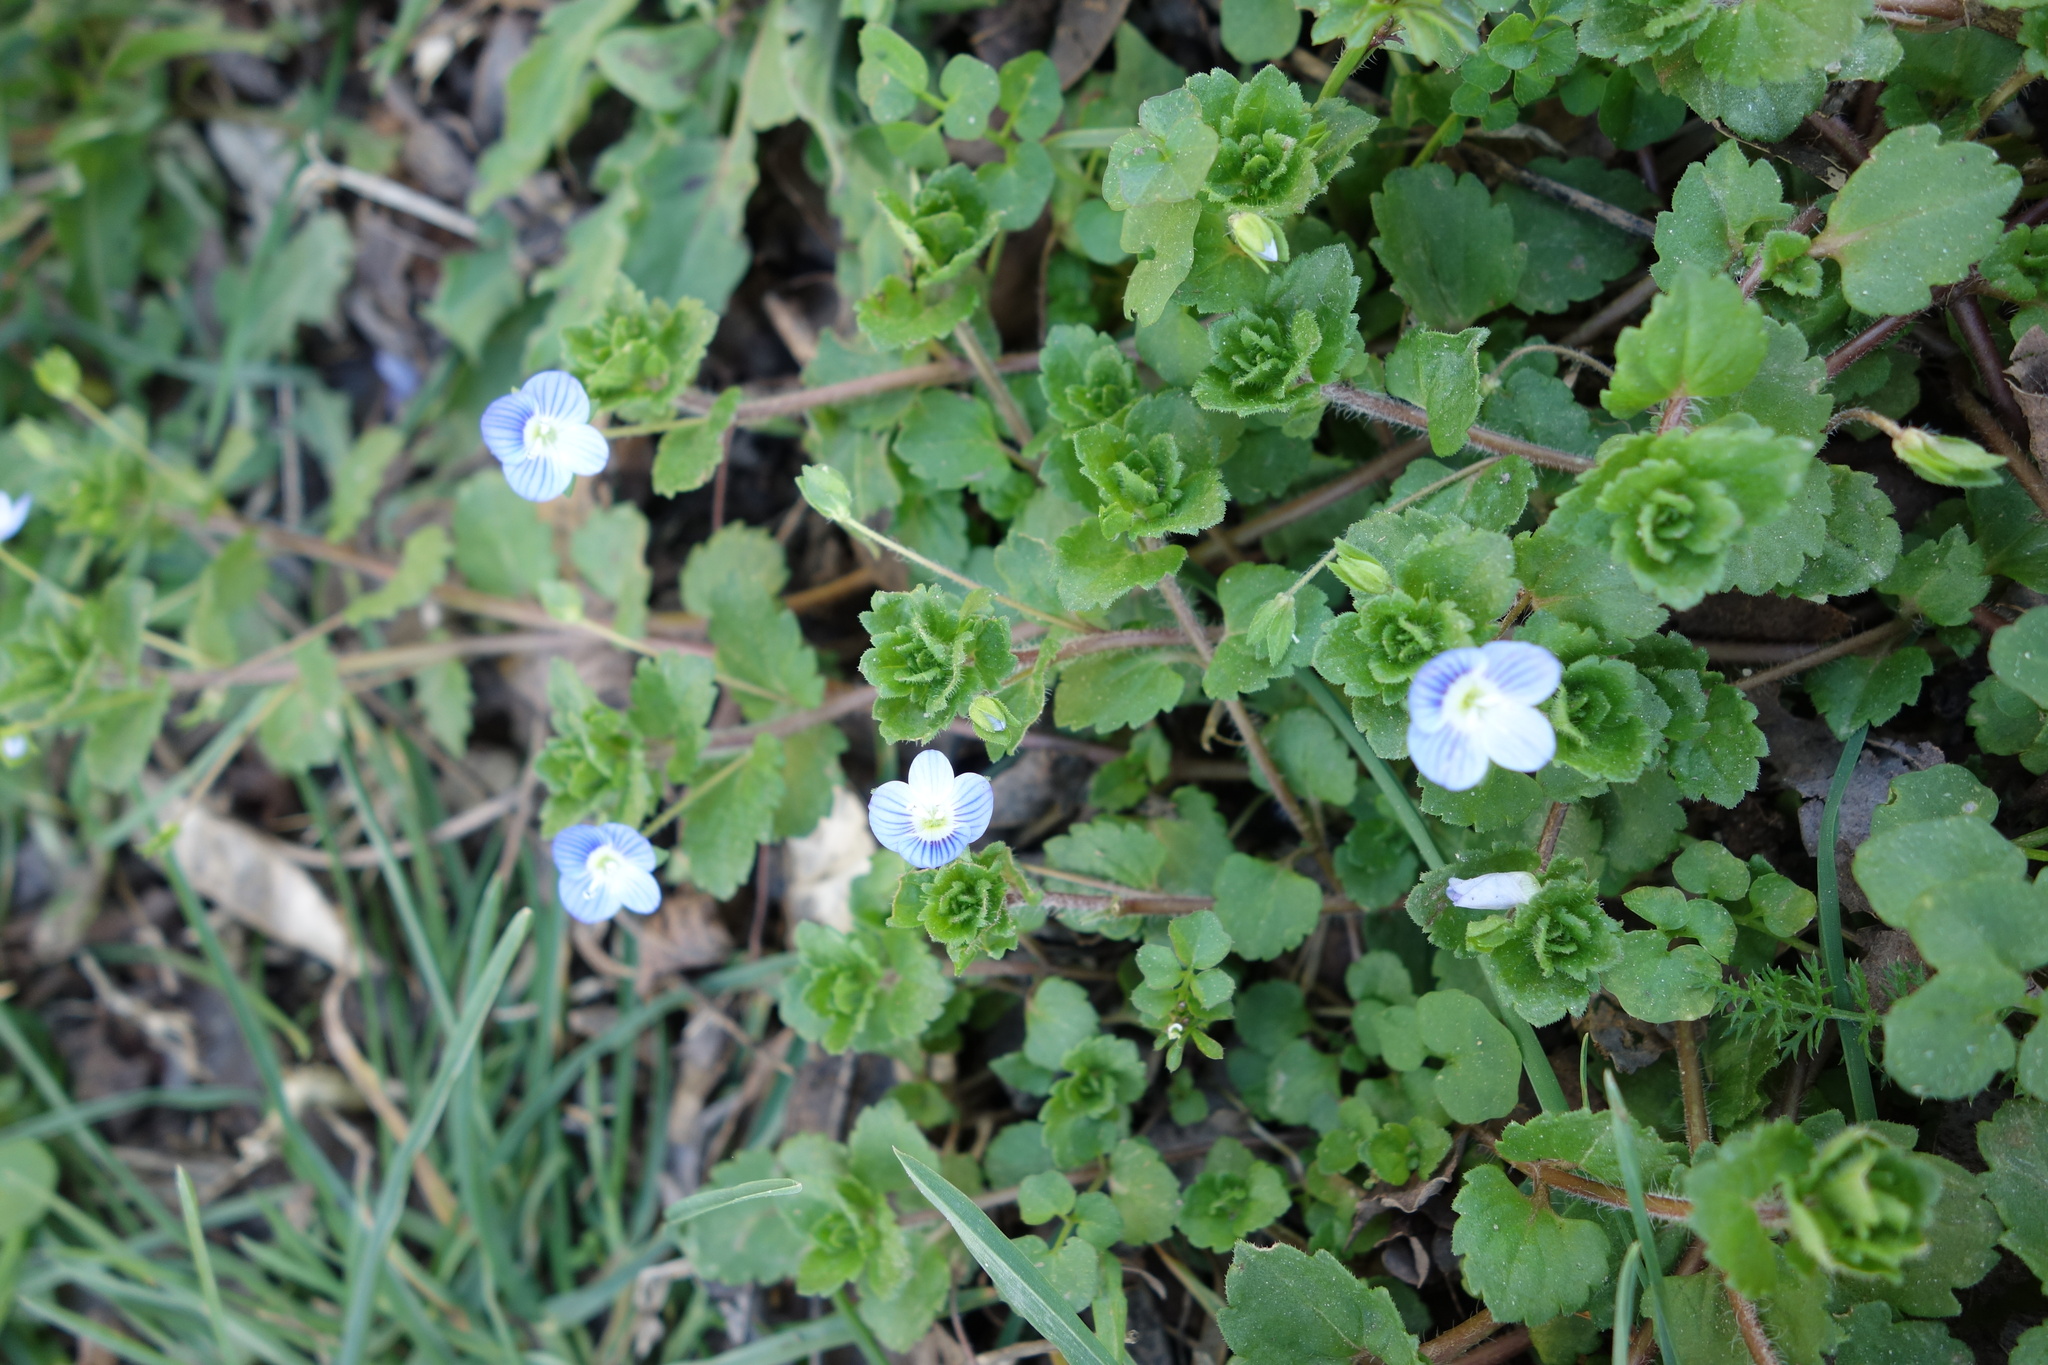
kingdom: Plantae
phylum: Tracheophyta
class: Magnoliopsida
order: Lamiales
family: Plantaginaceae
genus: Veronica
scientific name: Veronica persica
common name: Common field-speedwell
